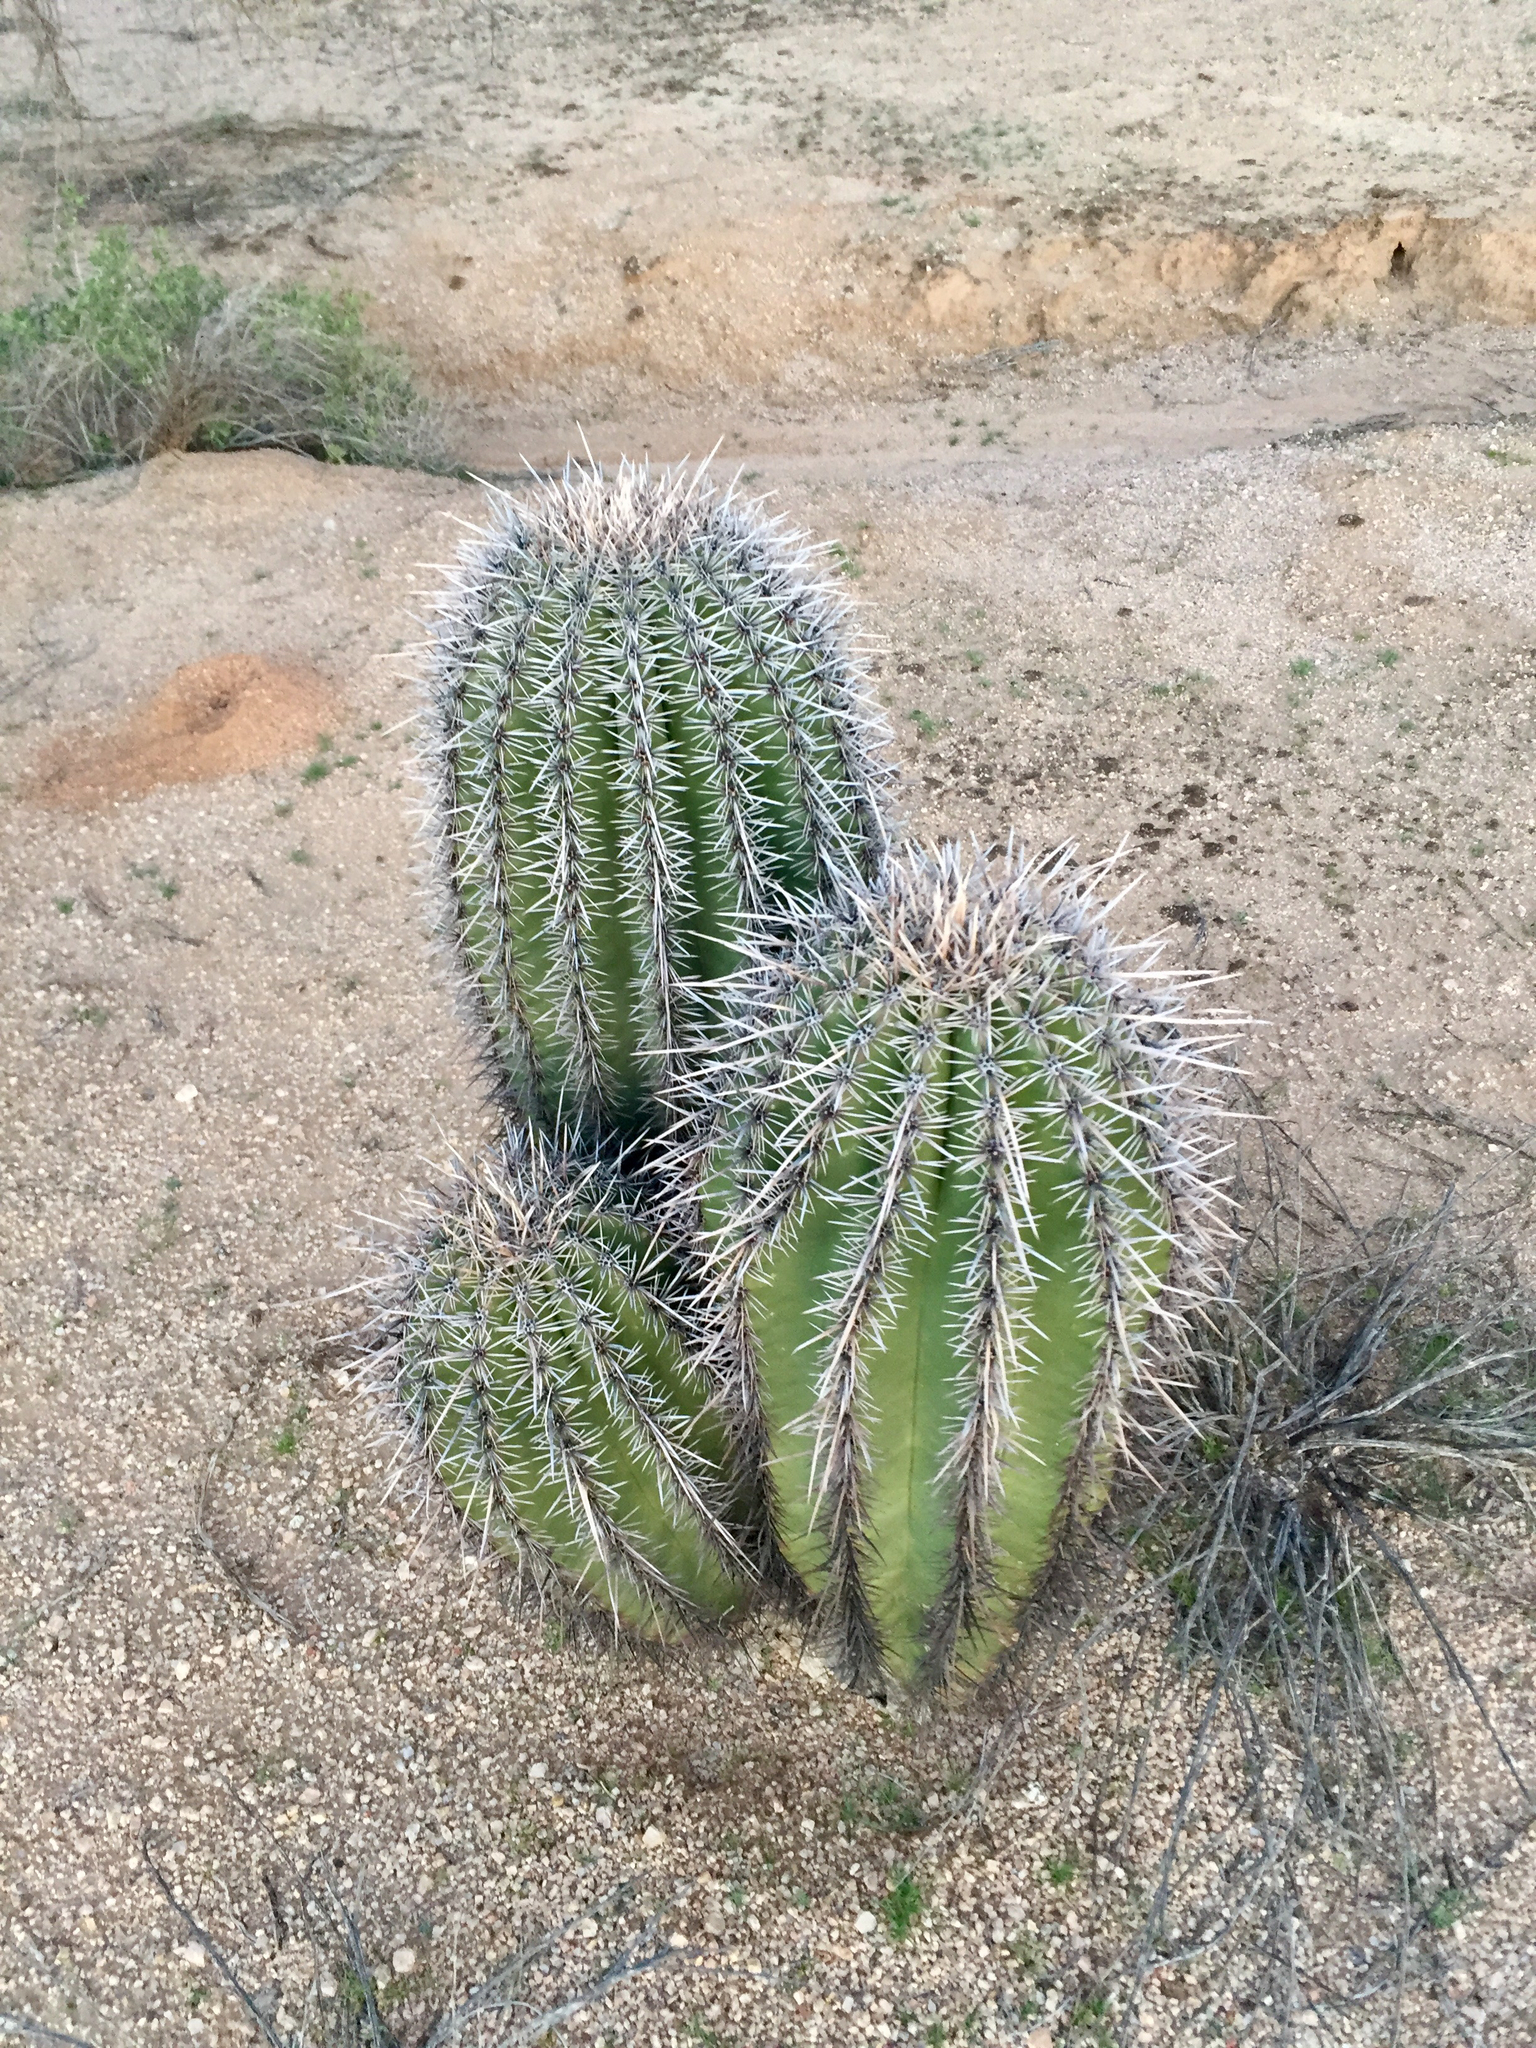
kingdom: Plantae
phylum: Tracheophyta
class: Magnoliopsida
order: Caryophyllales
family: Cactaceae
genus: Carnegiea
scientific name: Carnegiea gigantea
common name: Saguaro
